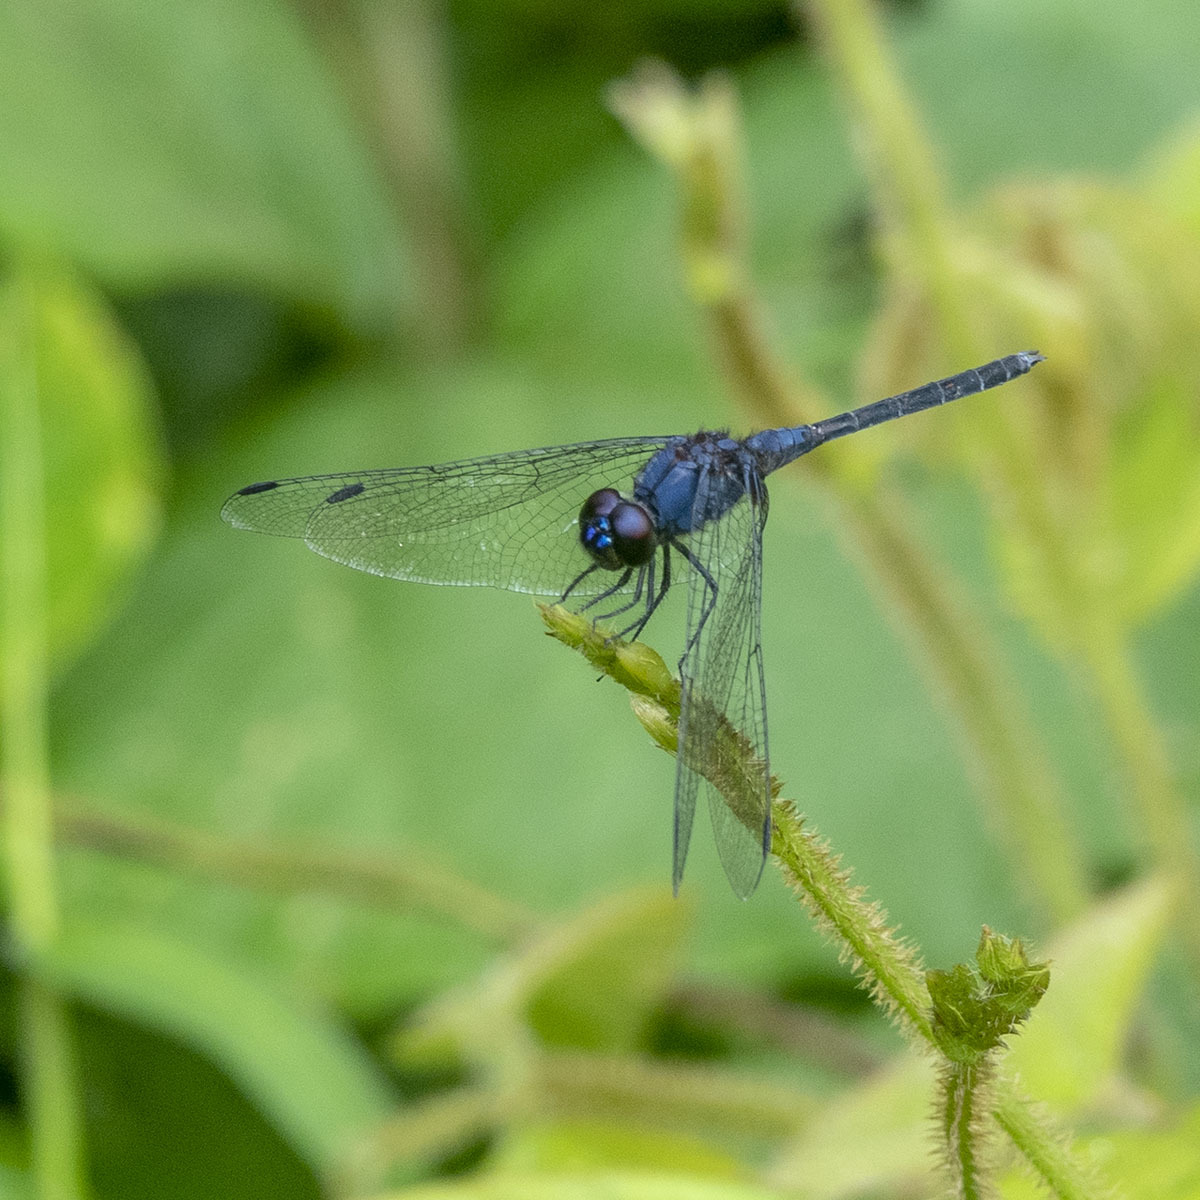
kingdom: Animalia
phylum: Arthropoda
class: Insecta
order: Odonata
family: Libellulidae
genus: Trithemis
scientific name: Trithemis festiva
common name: Indigo dropwing
